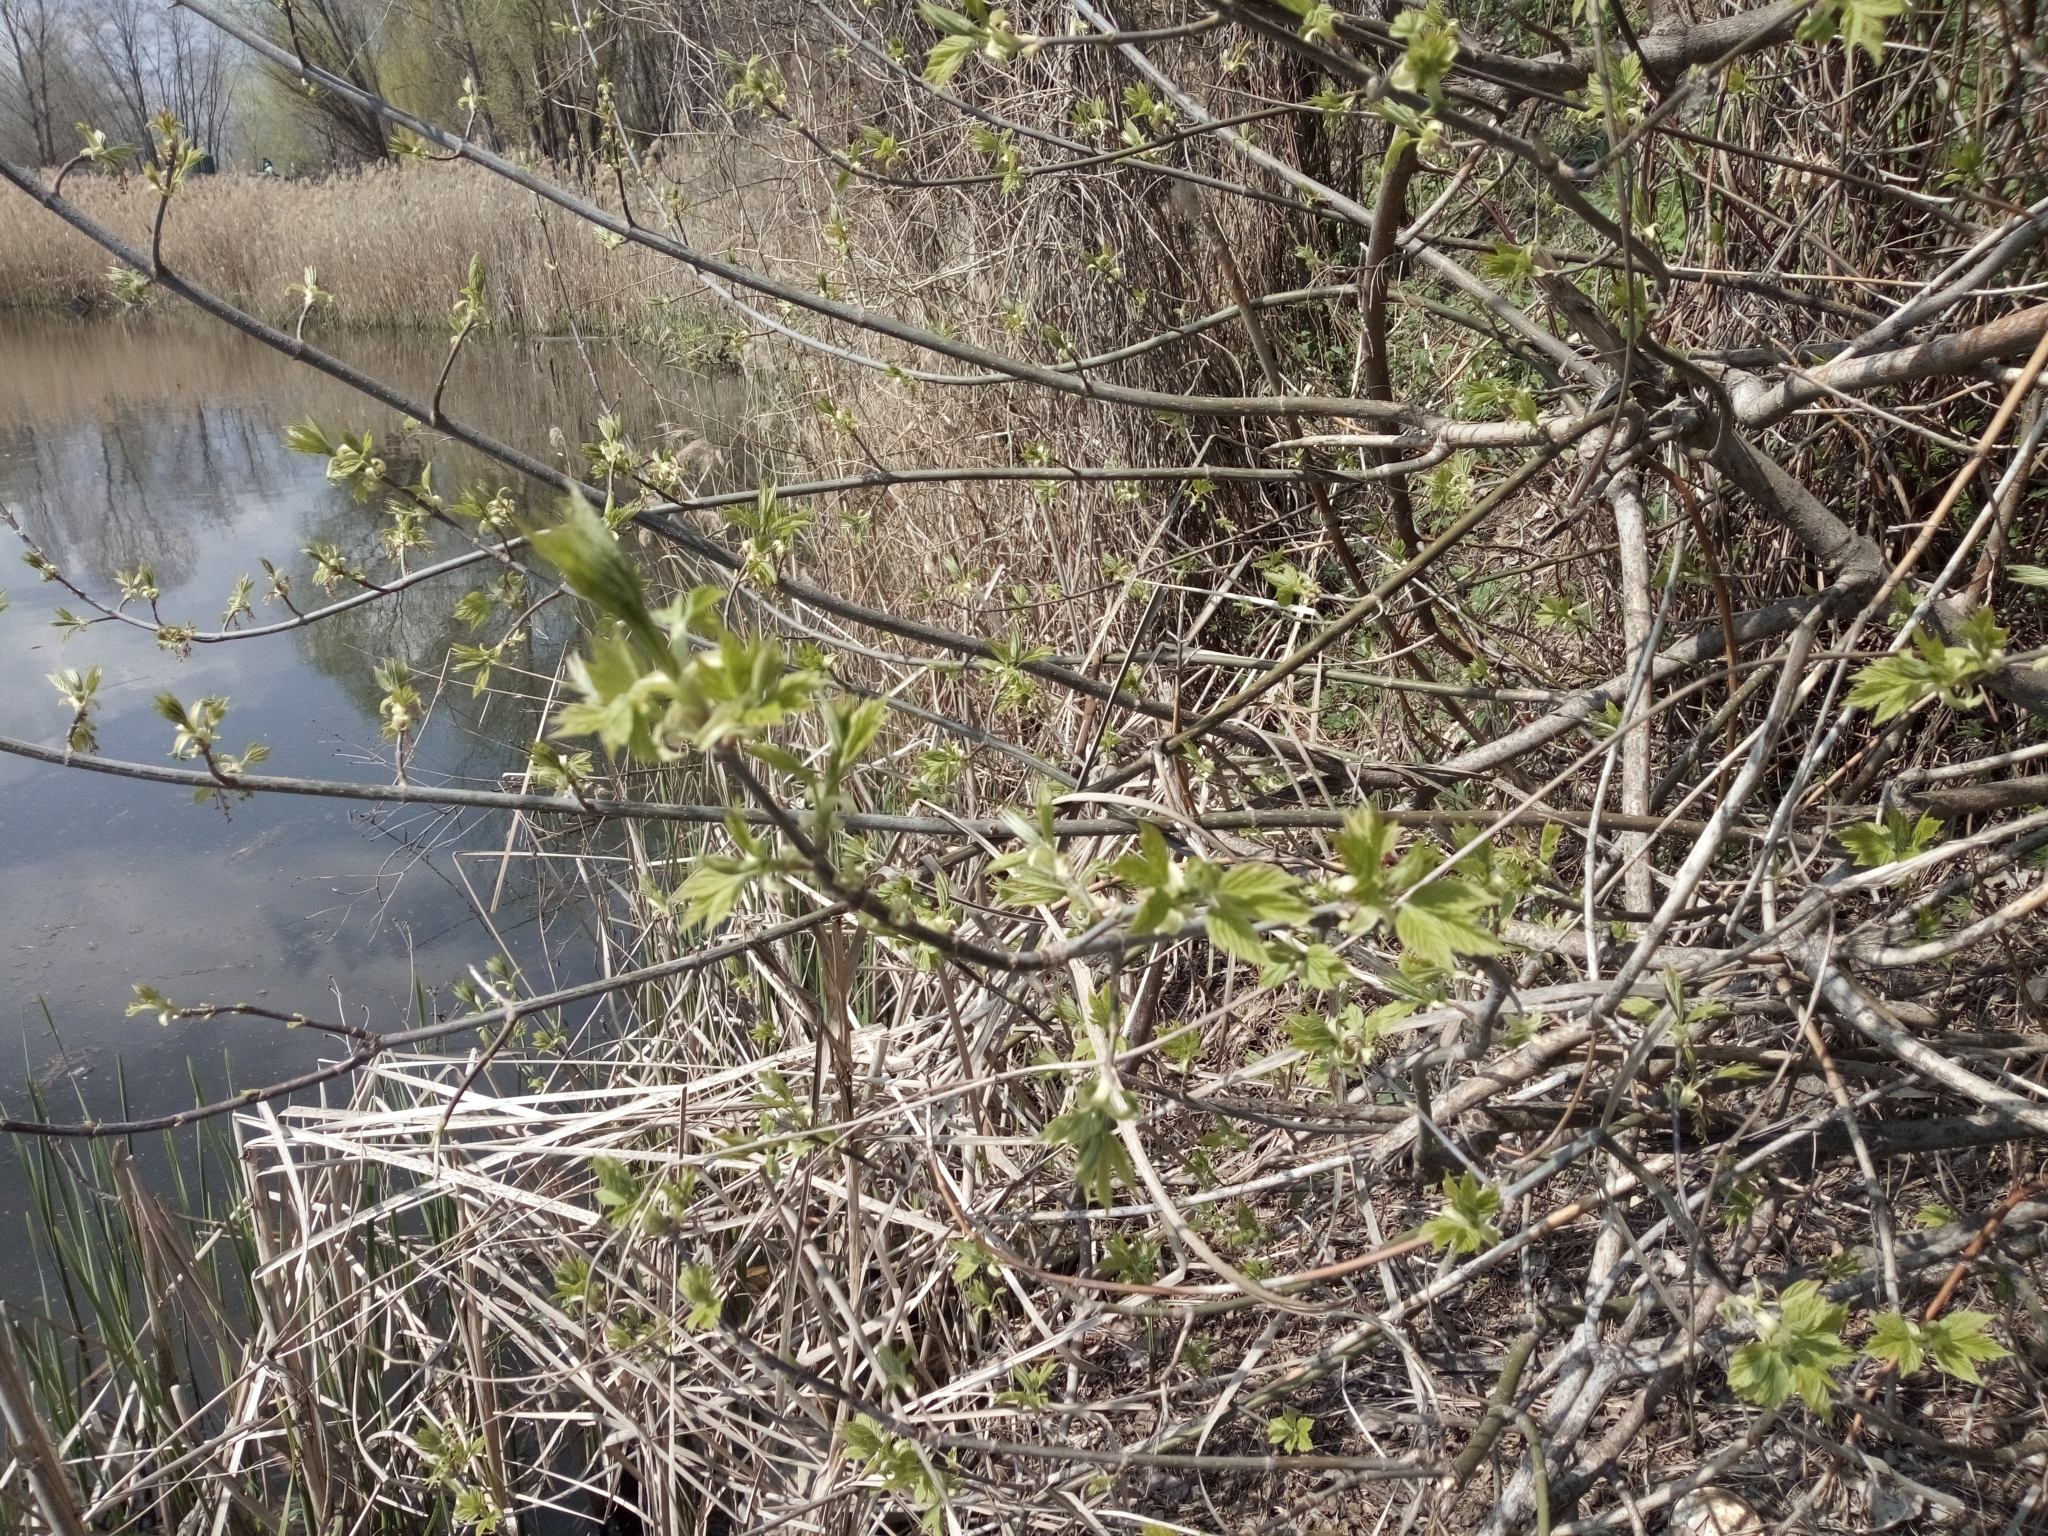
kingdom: Plantae
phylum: Tracheophyta
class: Magnoliopsida
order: Sapindales
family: Sapindaceae
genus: Acer
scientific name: Acer negundo
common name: Ashleaf maple
